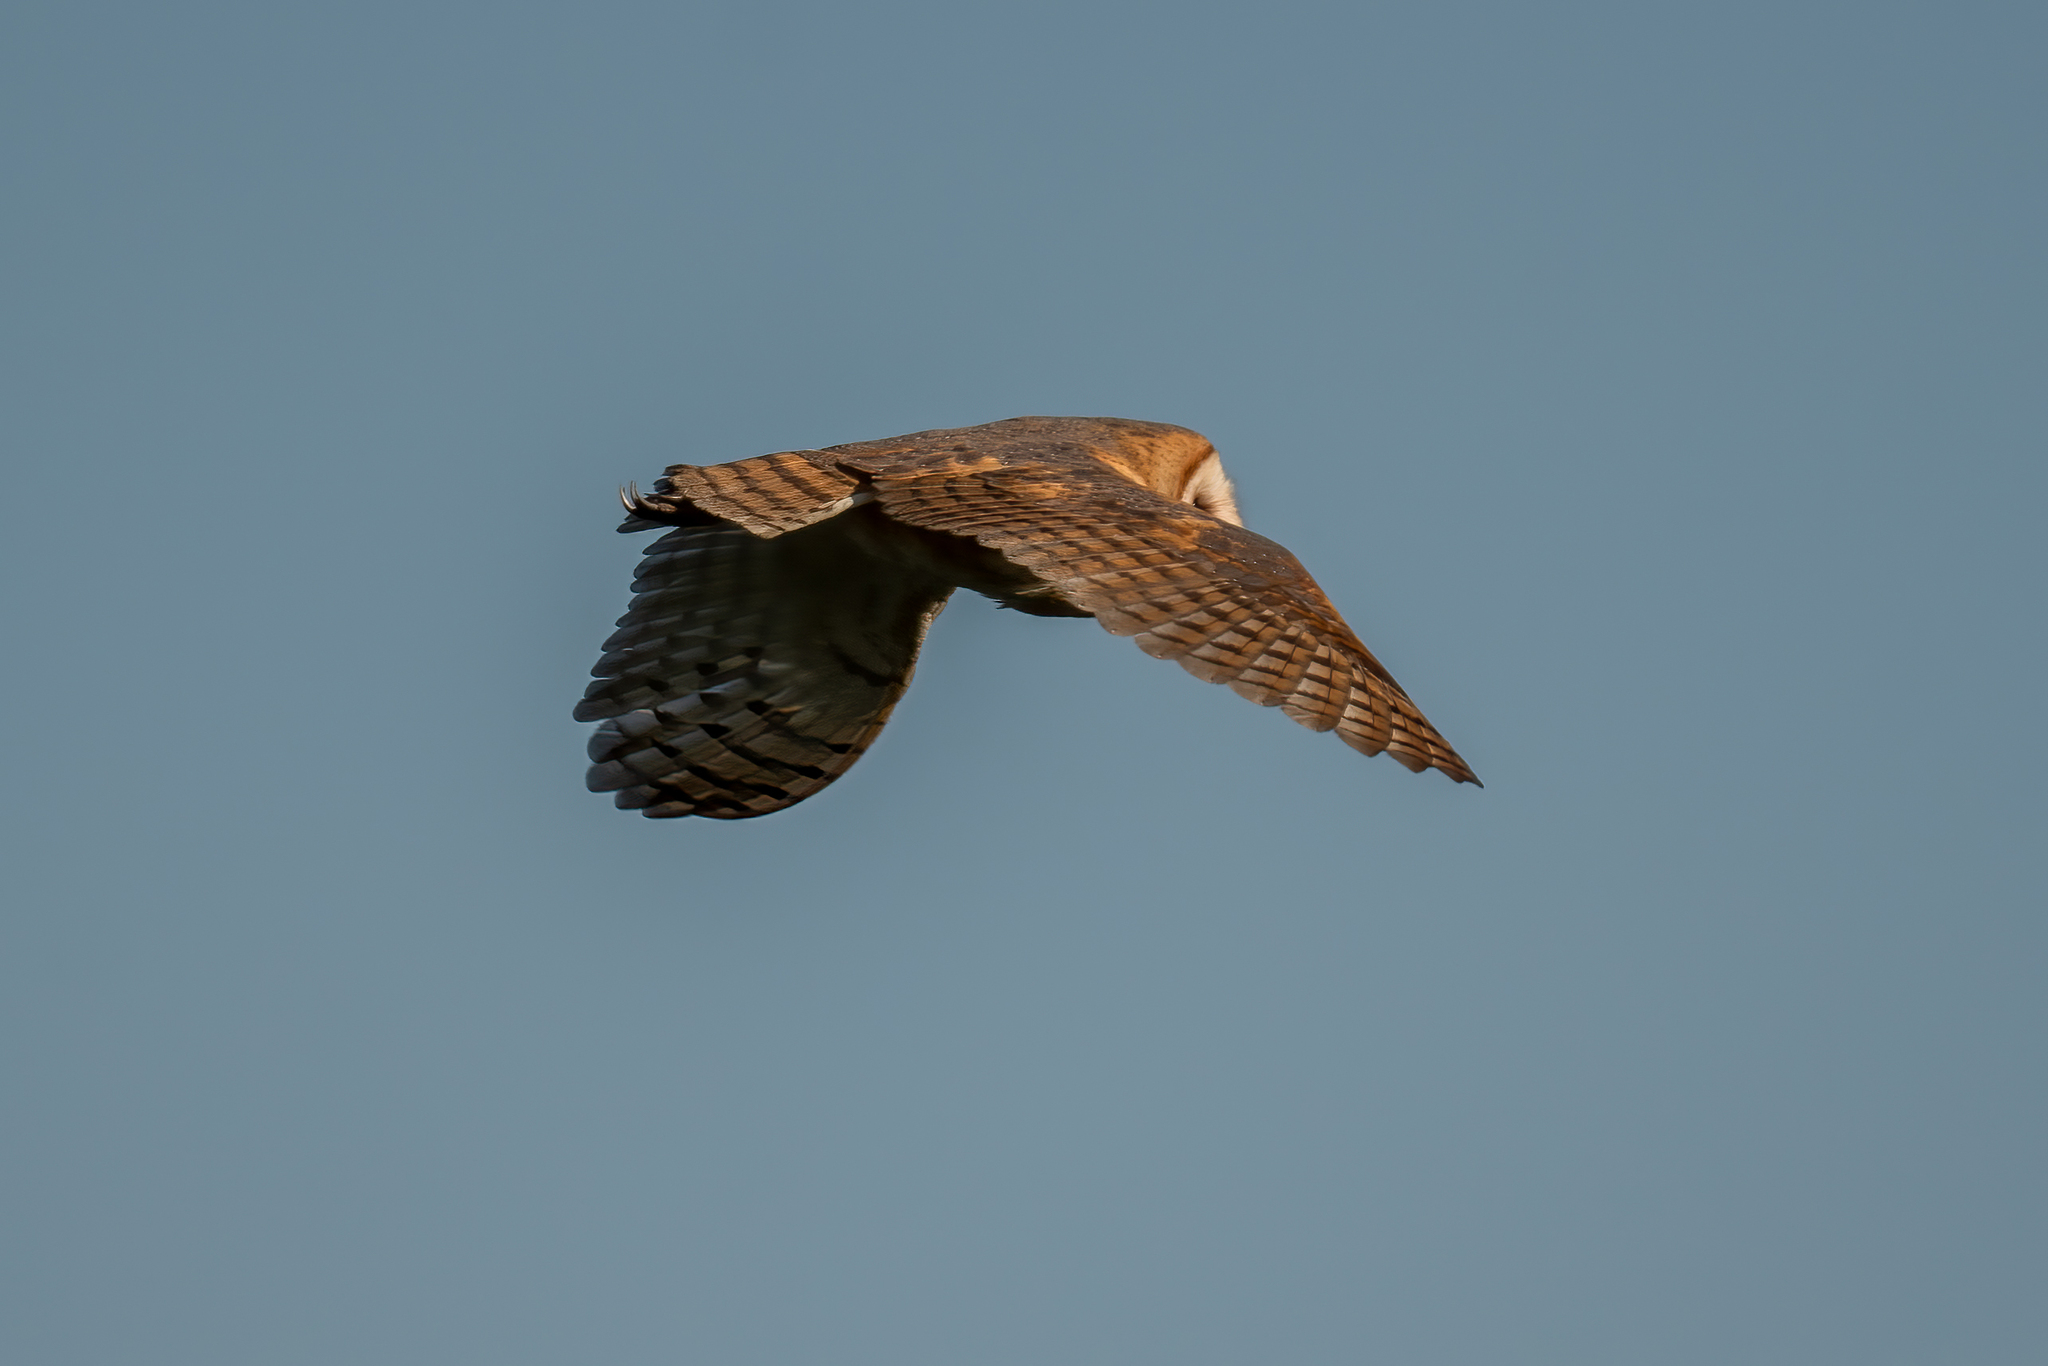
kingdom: Animalia
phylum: Chordata
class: Aves
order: Strigiformes
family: Tytonidae
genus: Tyto
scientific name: Tyto alba
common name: Barn owl
